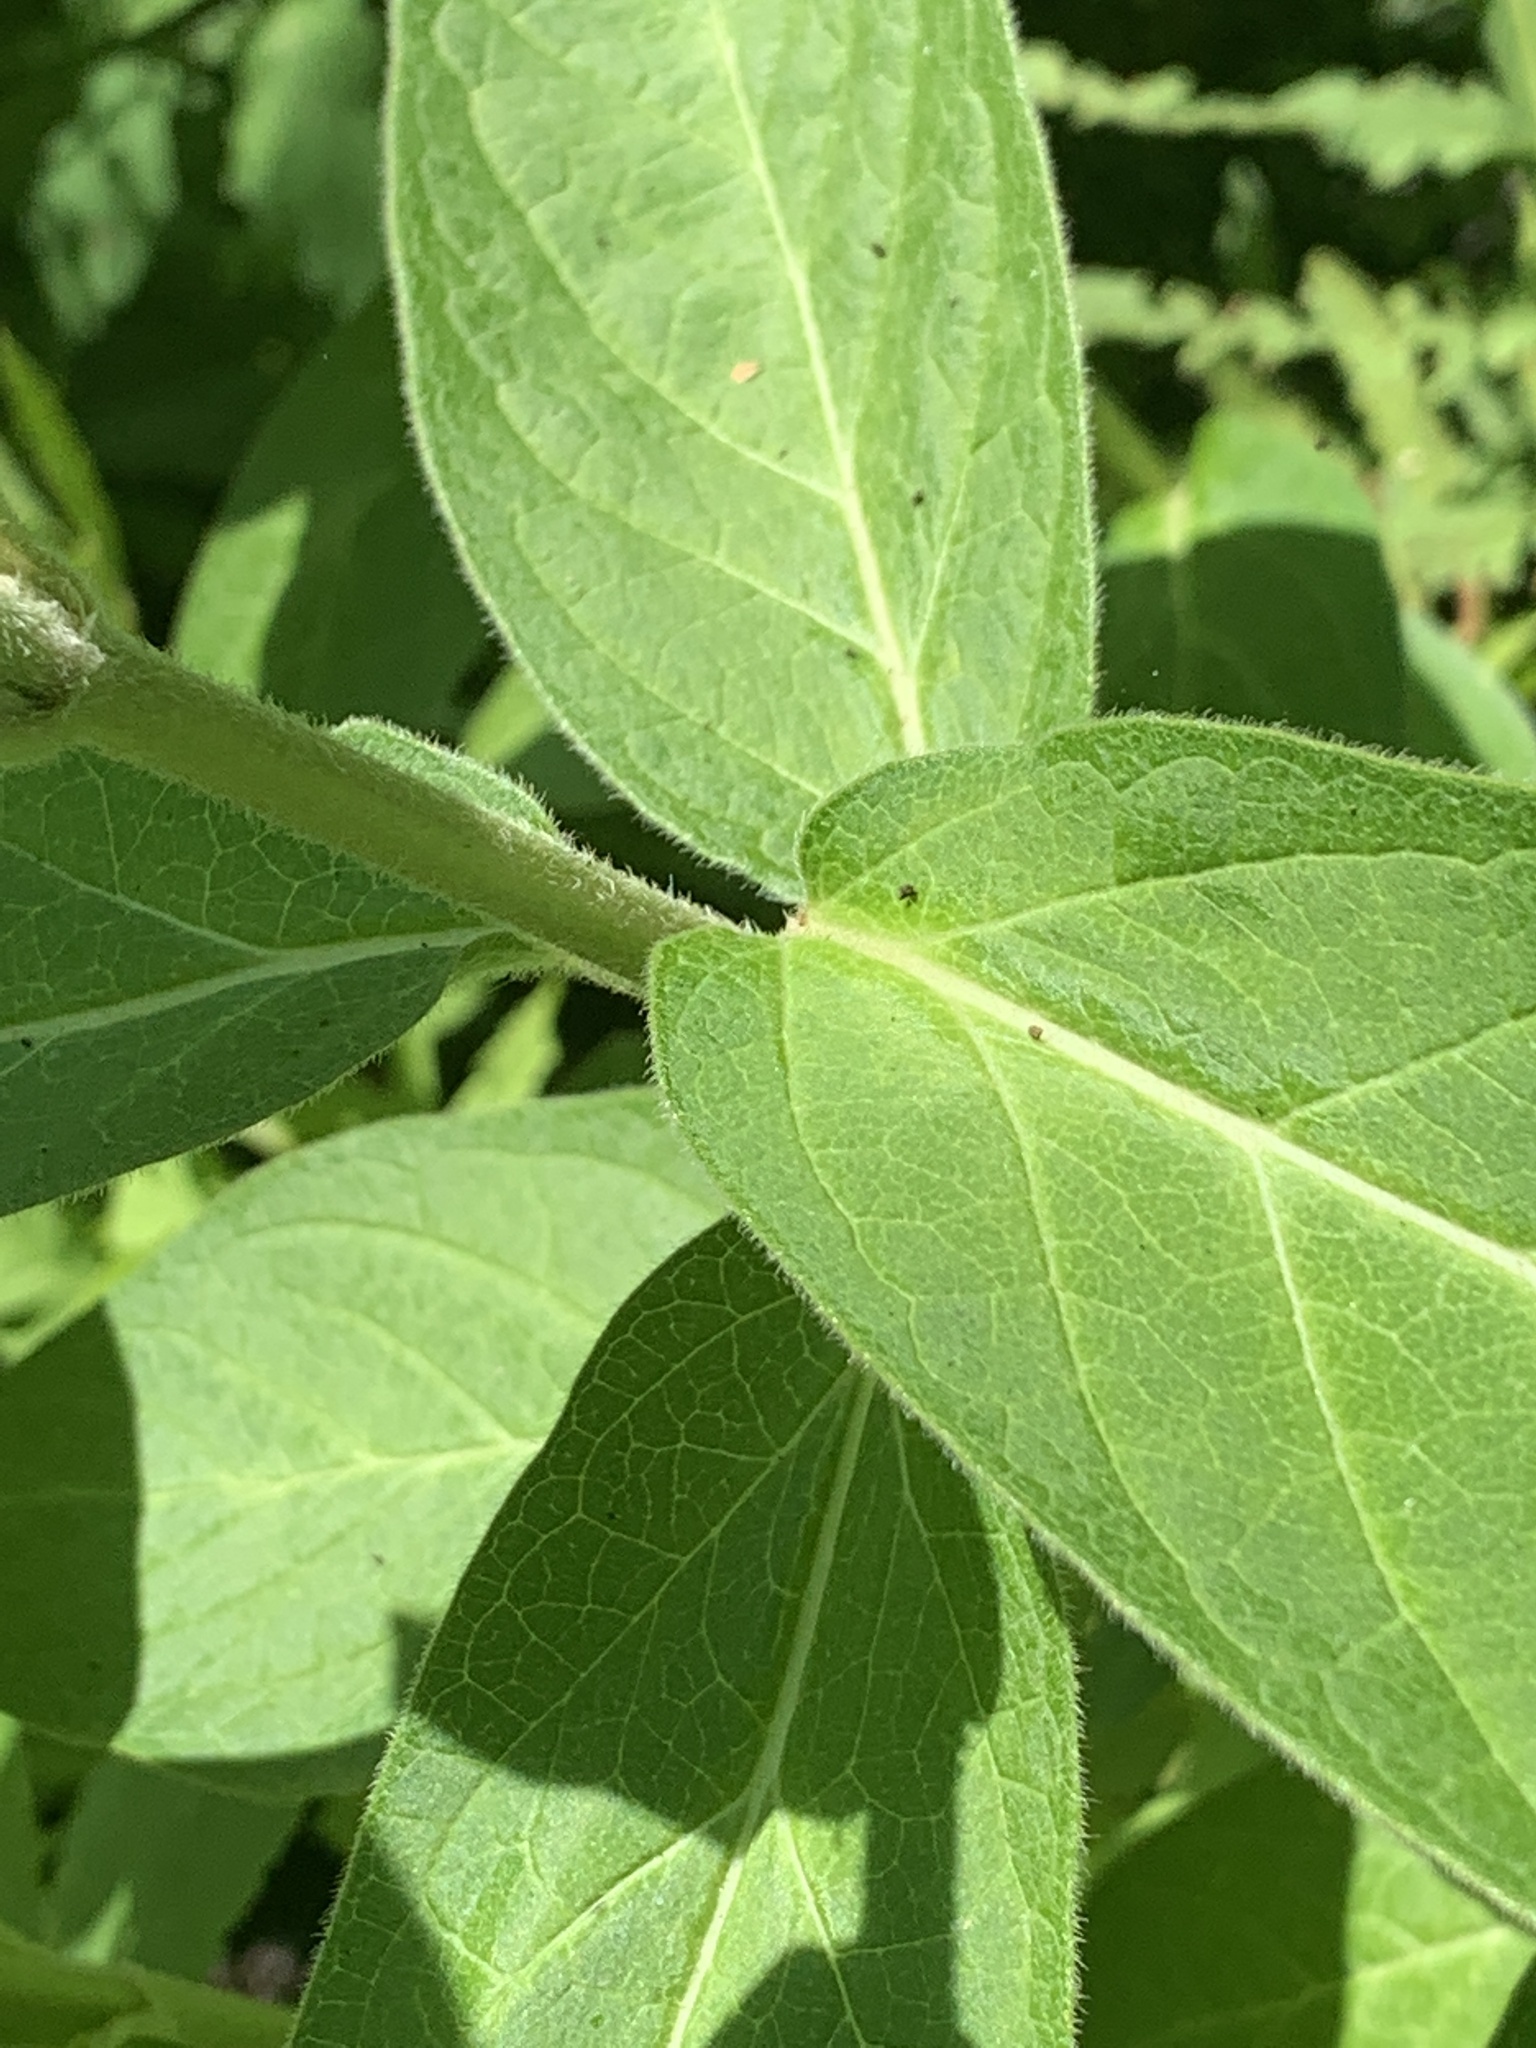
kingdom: Plantae
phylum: Tracheophyta
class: Magnoliopsida
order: Gentianales
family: Apocynaceae
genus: Asclepias
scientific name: Asclepias incarnata
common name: Swamp milkweed
